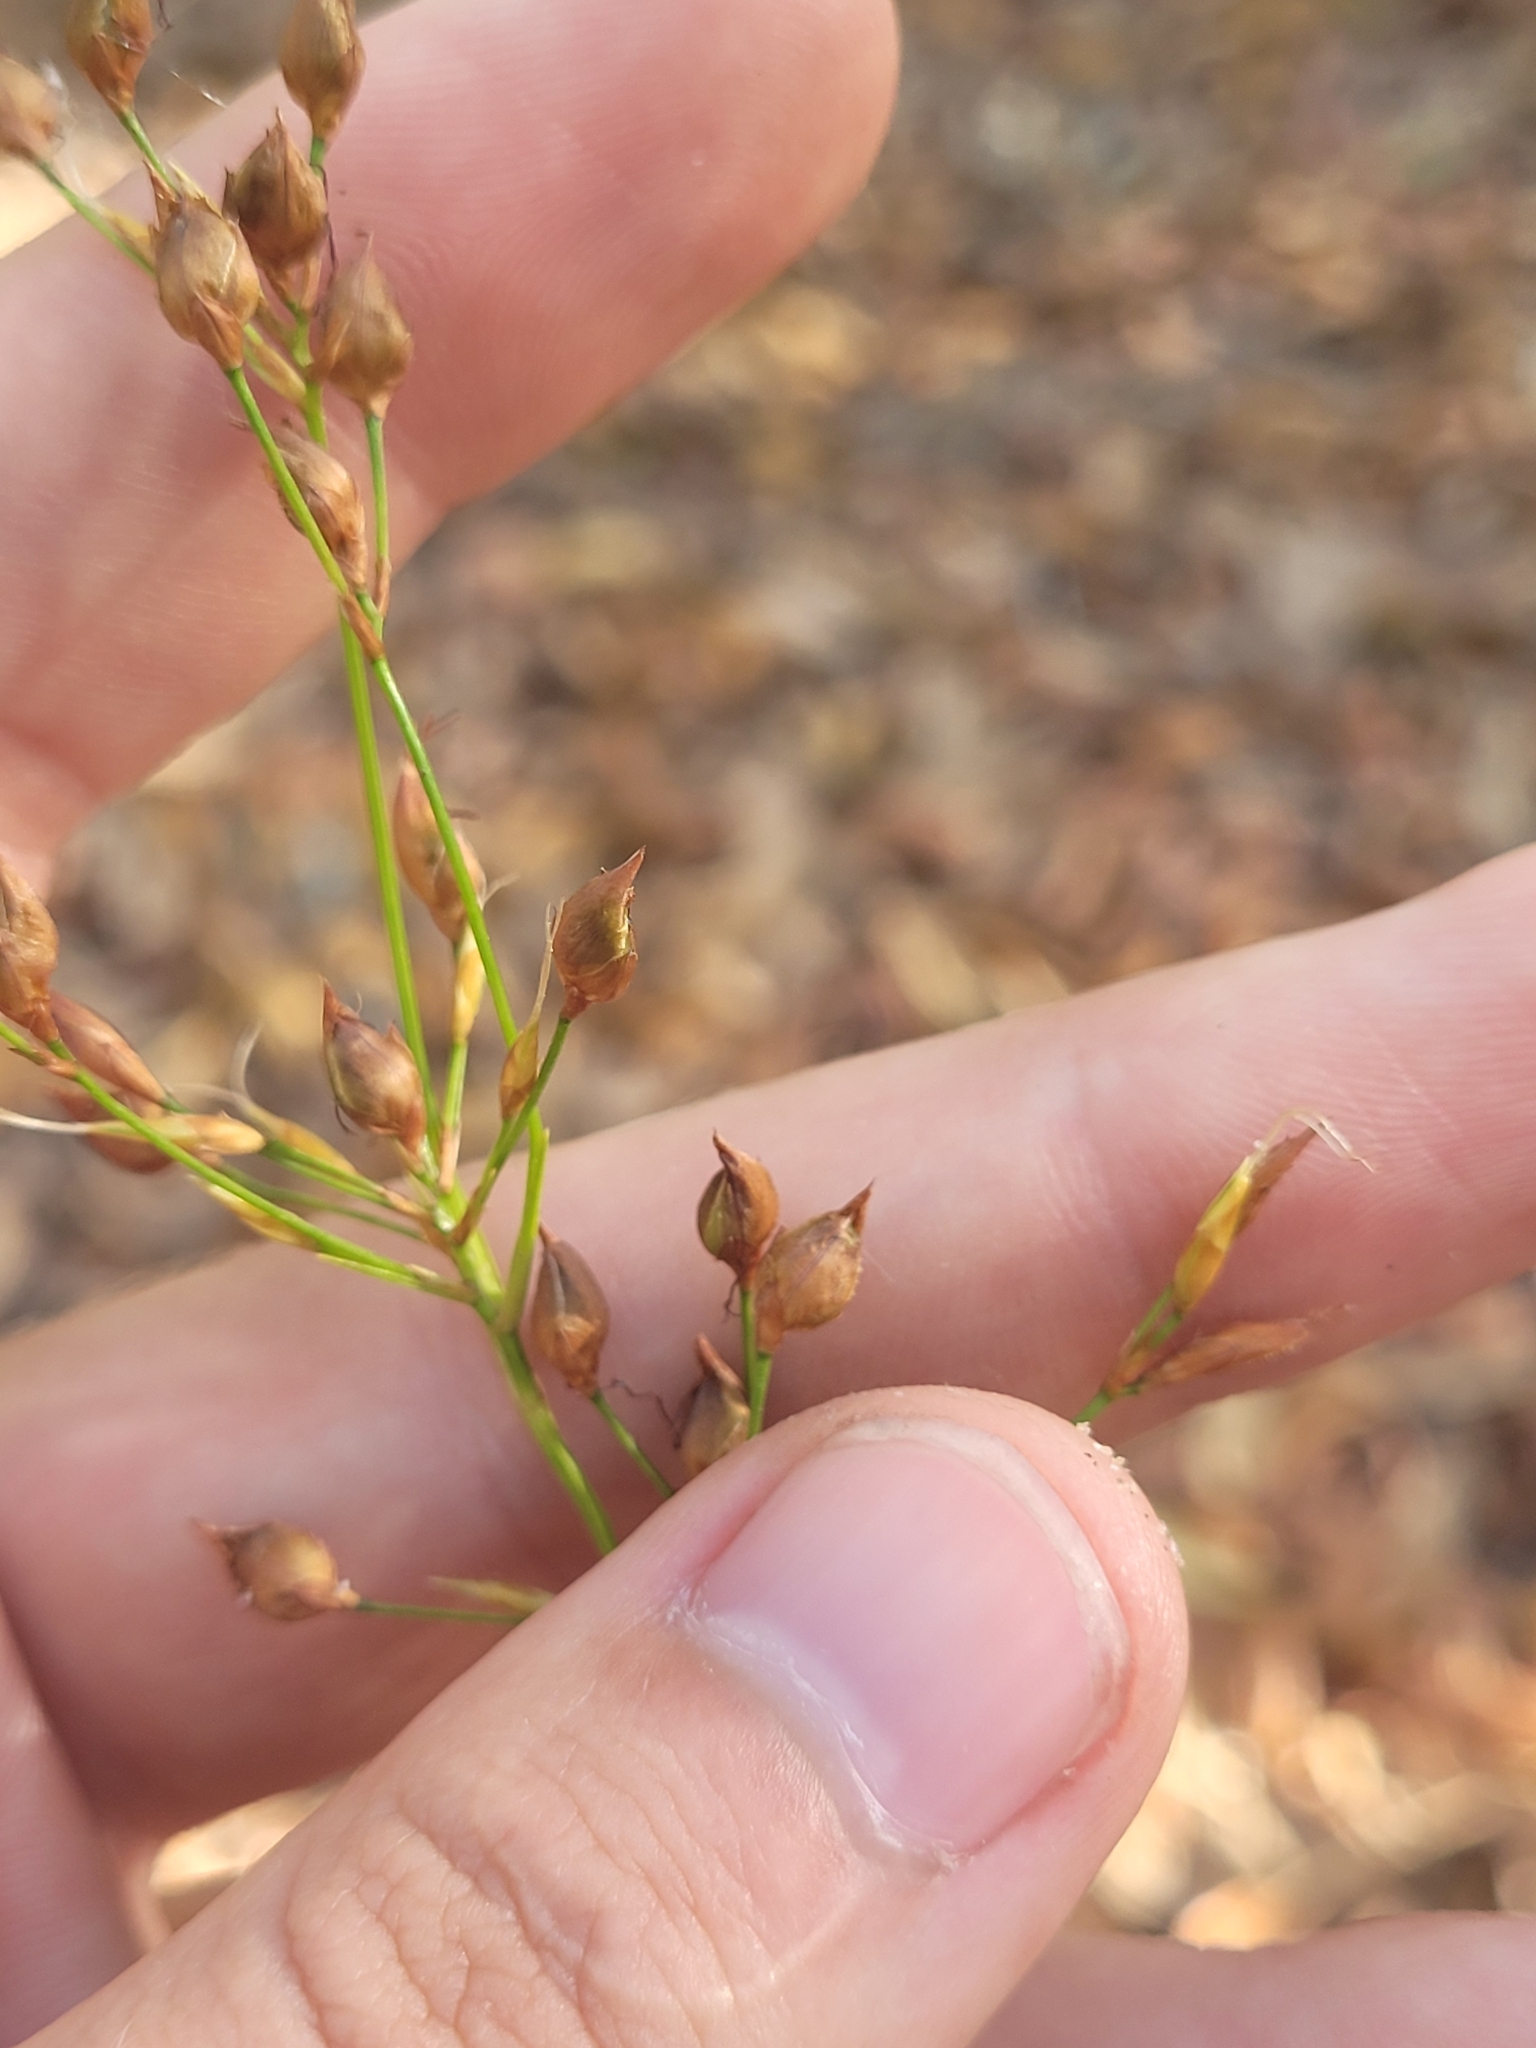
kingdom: Plantae
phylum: Tracheophyta
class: Liliopsida
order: Poales
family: Cyperaceae
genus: Rhynchospora
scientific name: Rhynchospora megalocarpa
